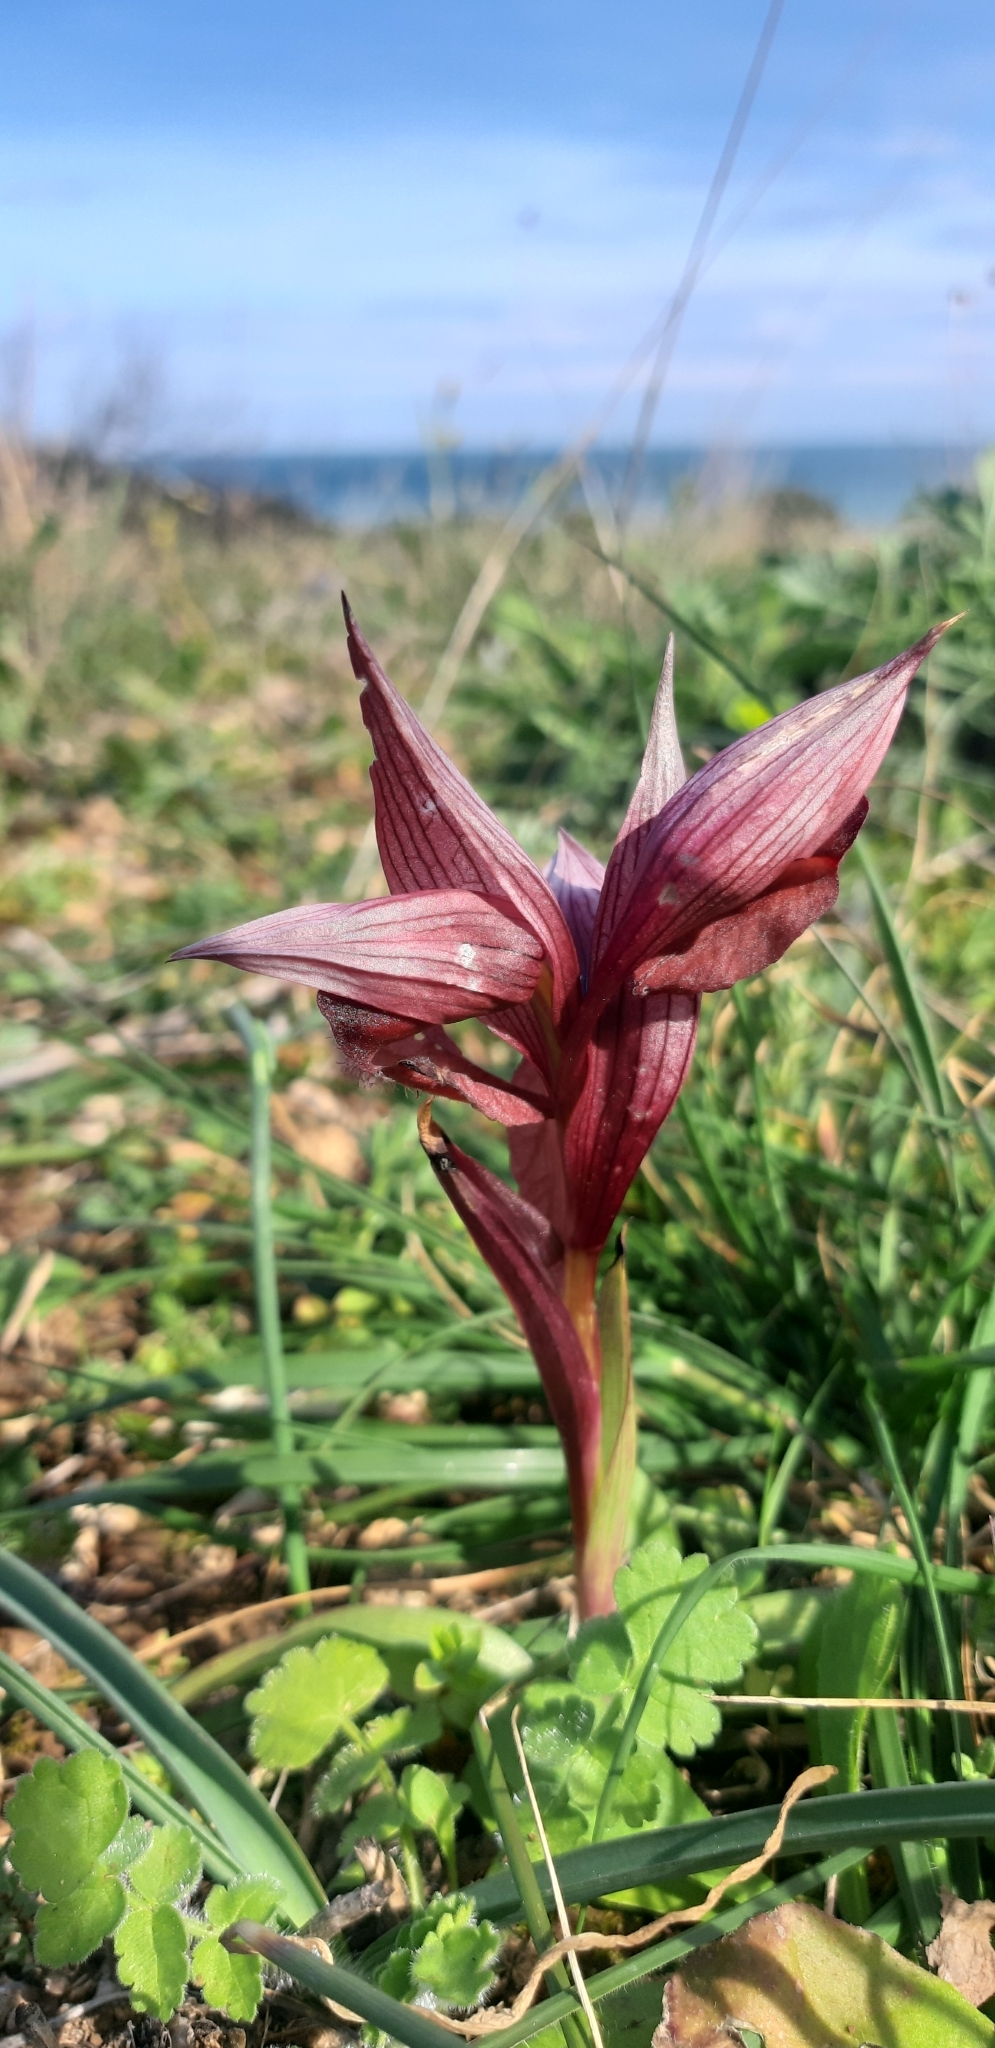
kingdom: Plantae
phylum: Tracheophyta
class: Liliopsida
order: Asparagales
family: Orchidaceae
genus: Serapias
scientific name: Serapias orientalis
